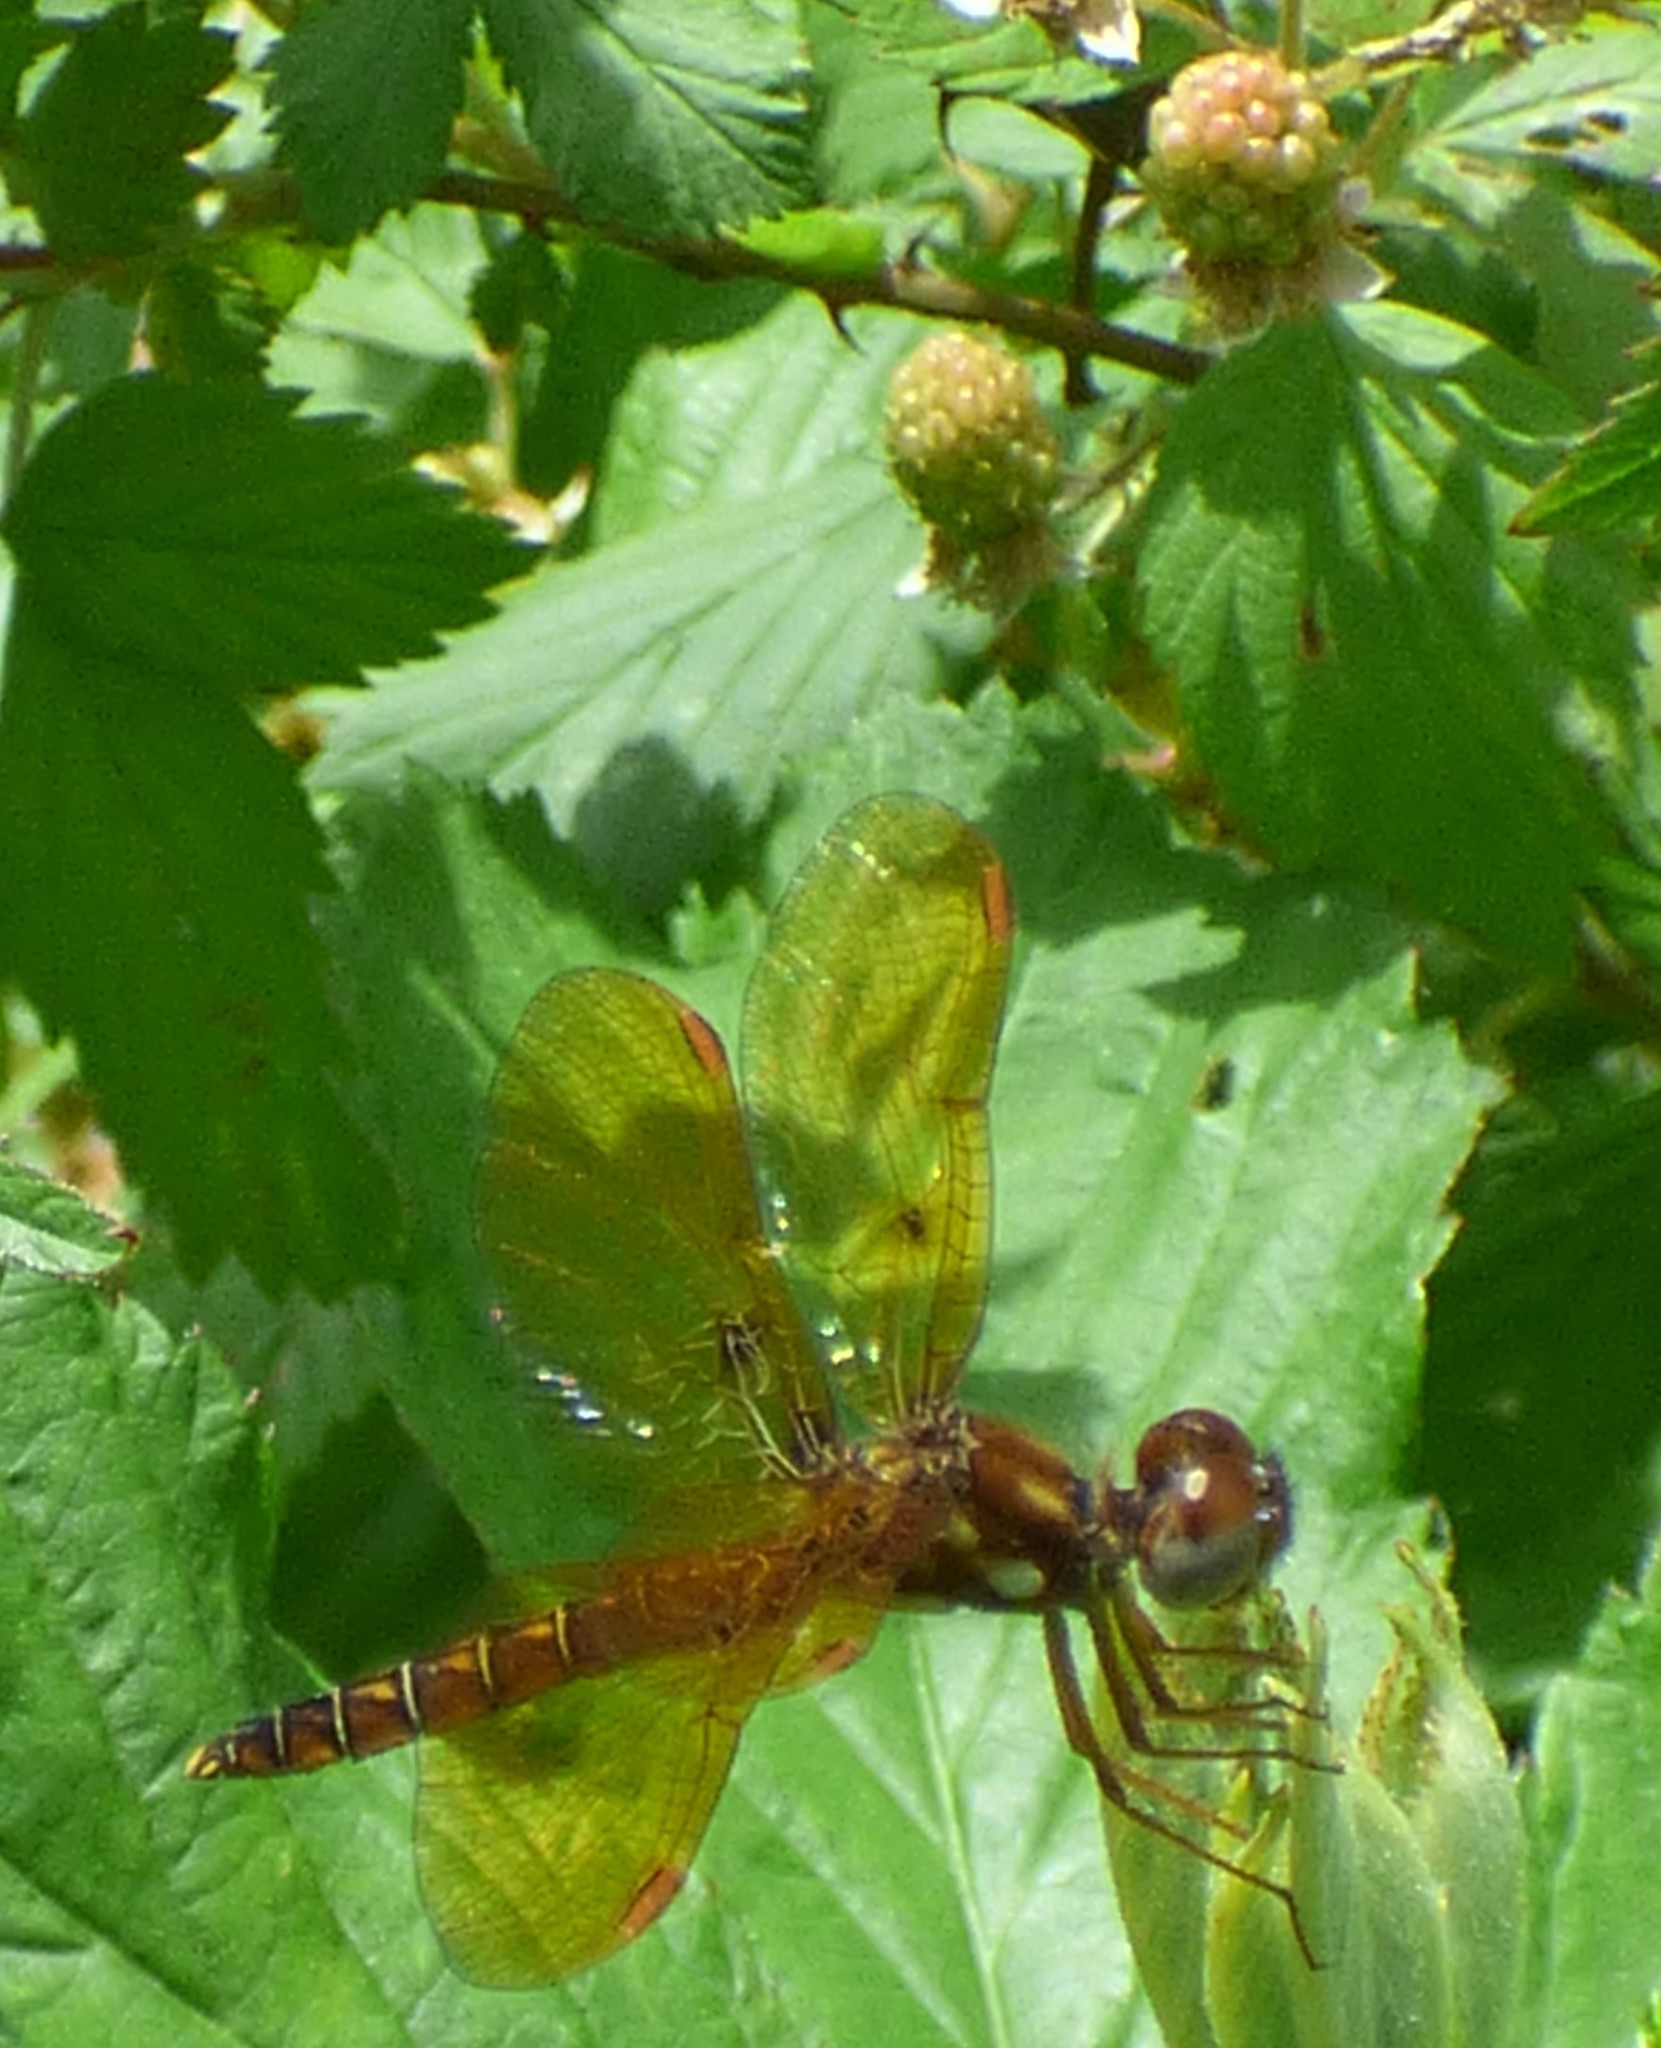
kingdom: Animalia
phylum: Arthropoda
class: Insecta
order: Odonata
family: Libellulidae
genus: Perithemis
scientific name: Perithemis tenera
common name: Eastern amberwing
